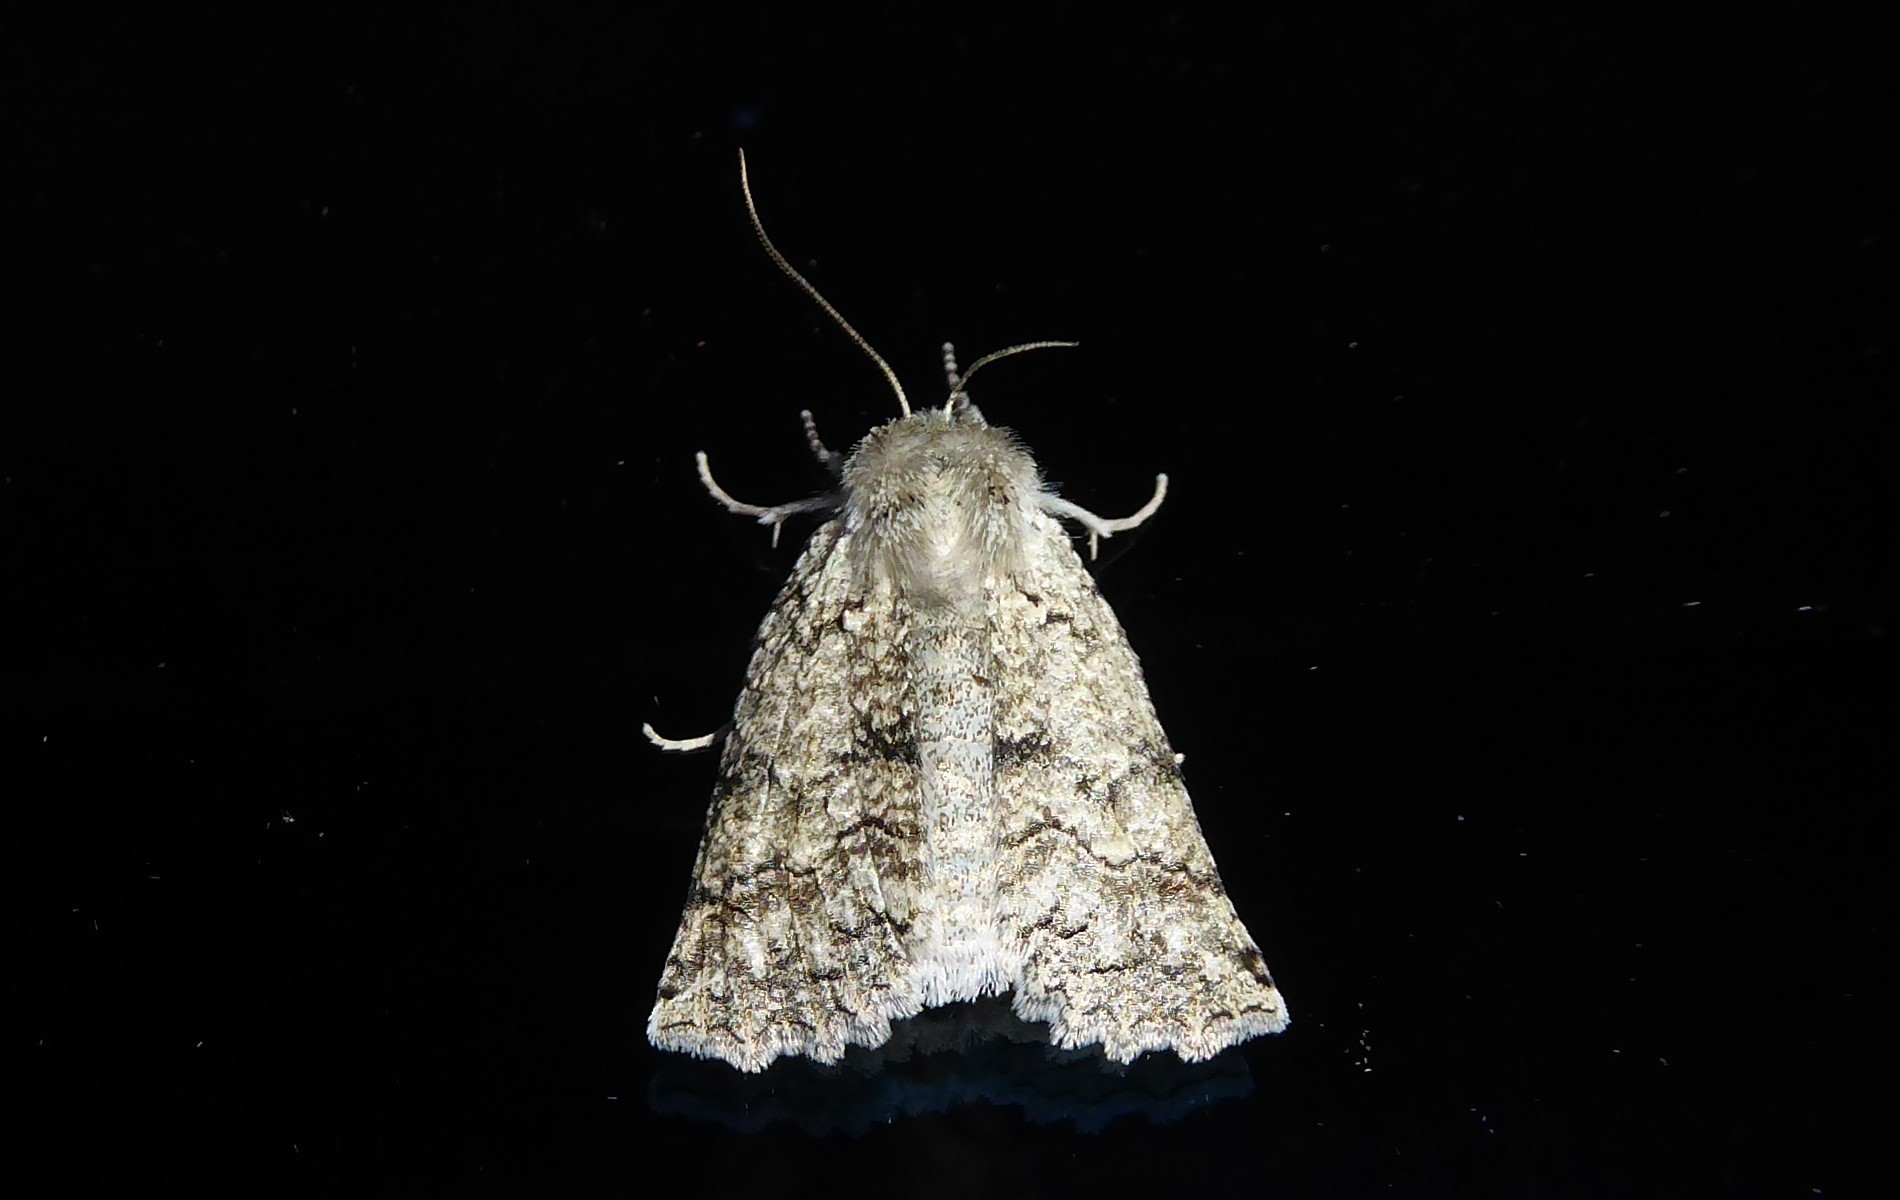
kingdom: Animalia
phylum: Arthropoda
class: Insecta
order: Lepidoptera
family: Geometridae
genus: Declana
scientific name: Declana floccosa
